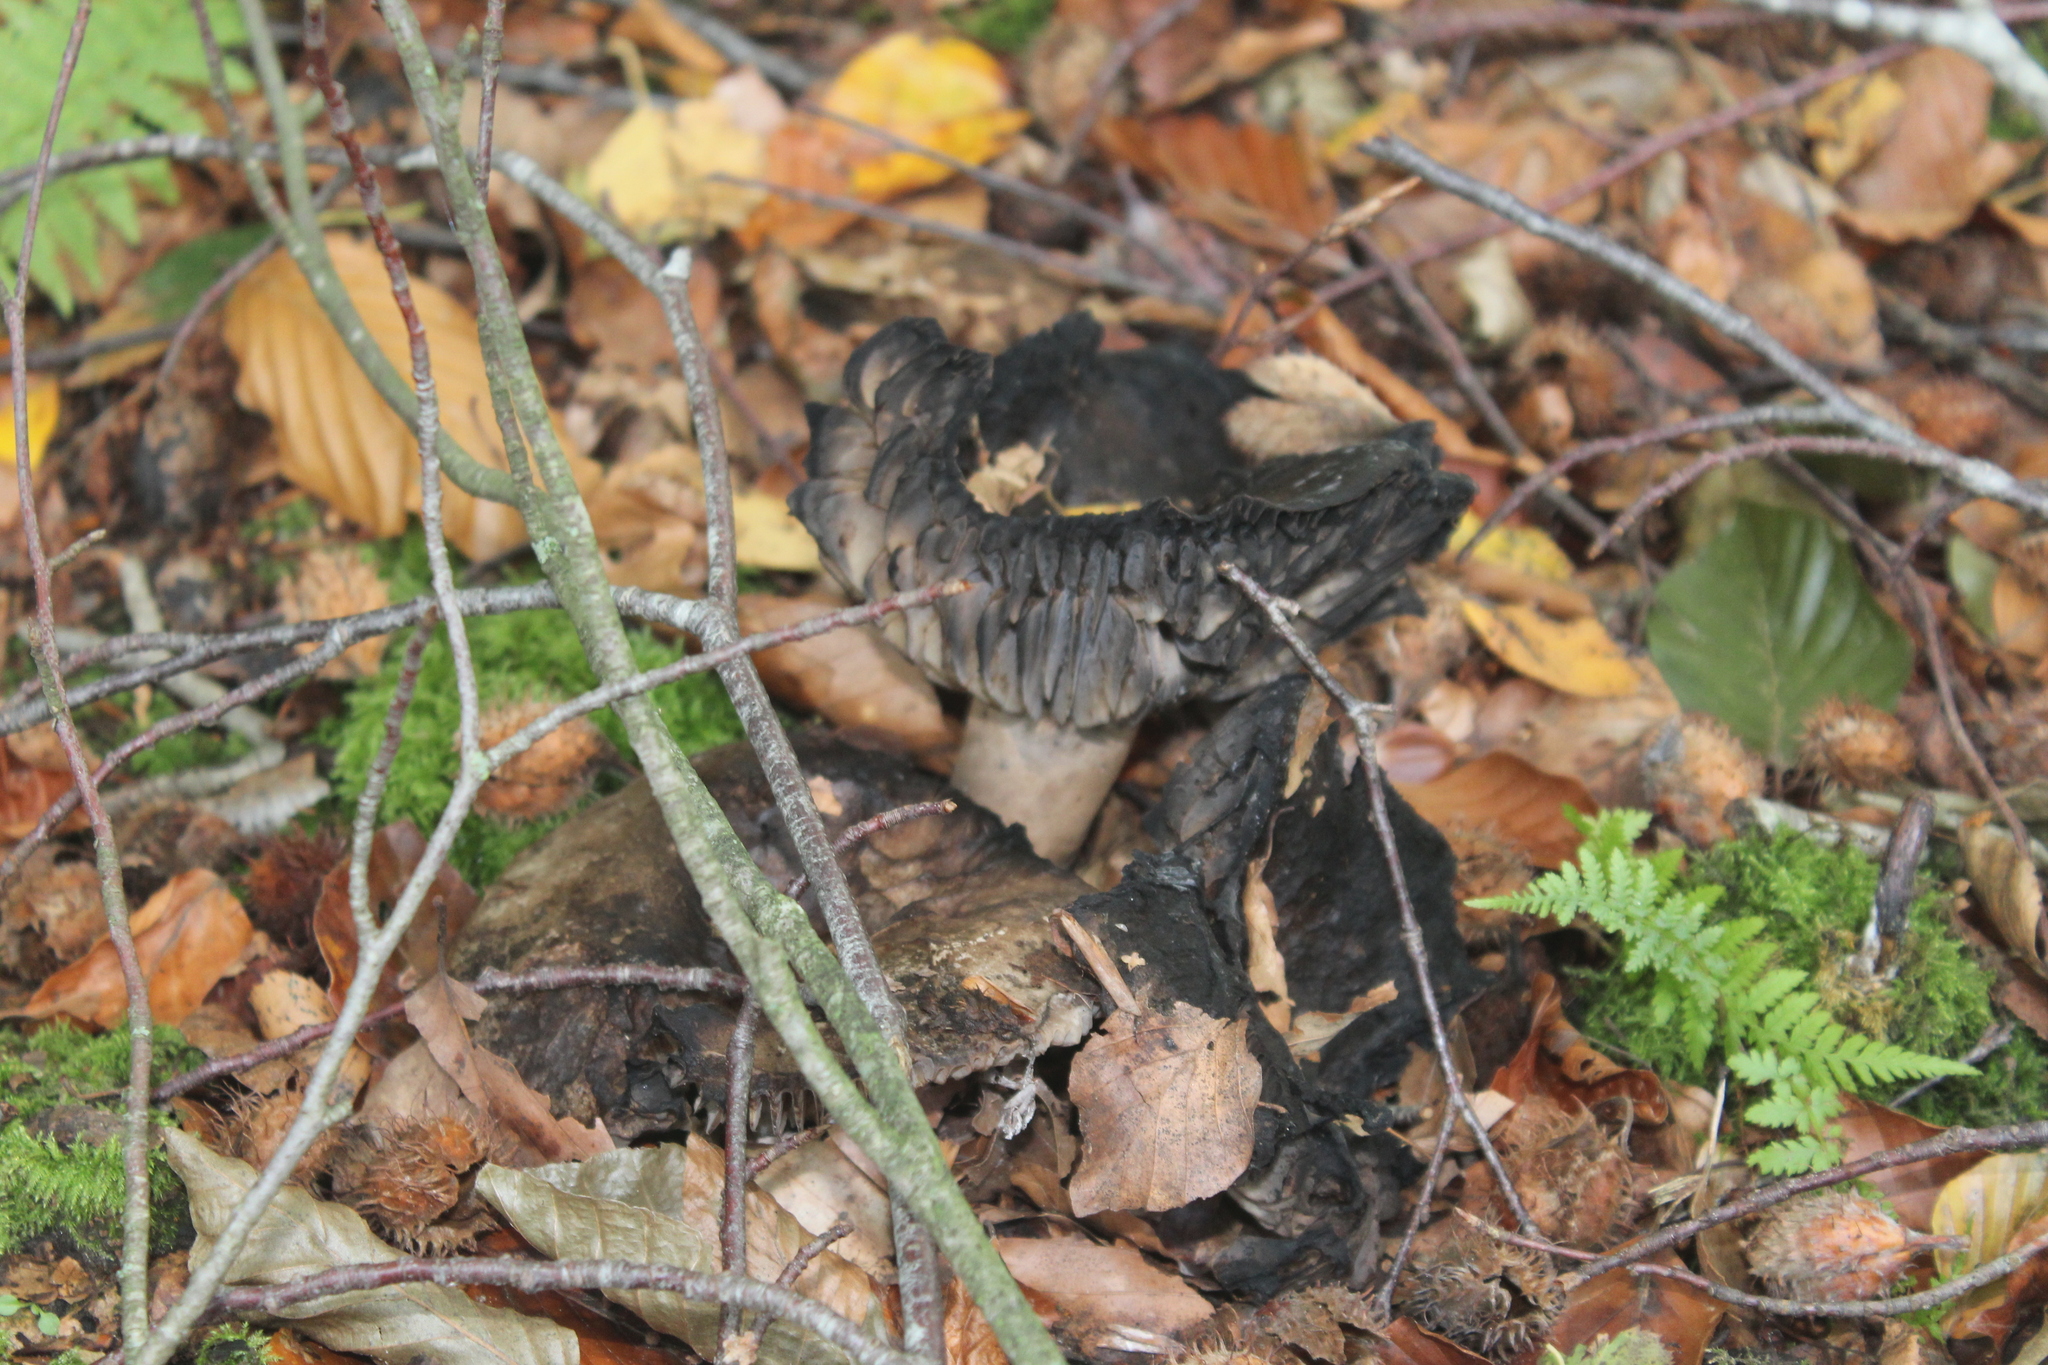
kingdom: Fungi
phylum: Basidiomycota
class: Agaricomycetes
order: Russulales
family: Russulaceae
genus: Russula
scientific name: Russula adusta
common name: Winecork brittlegill
